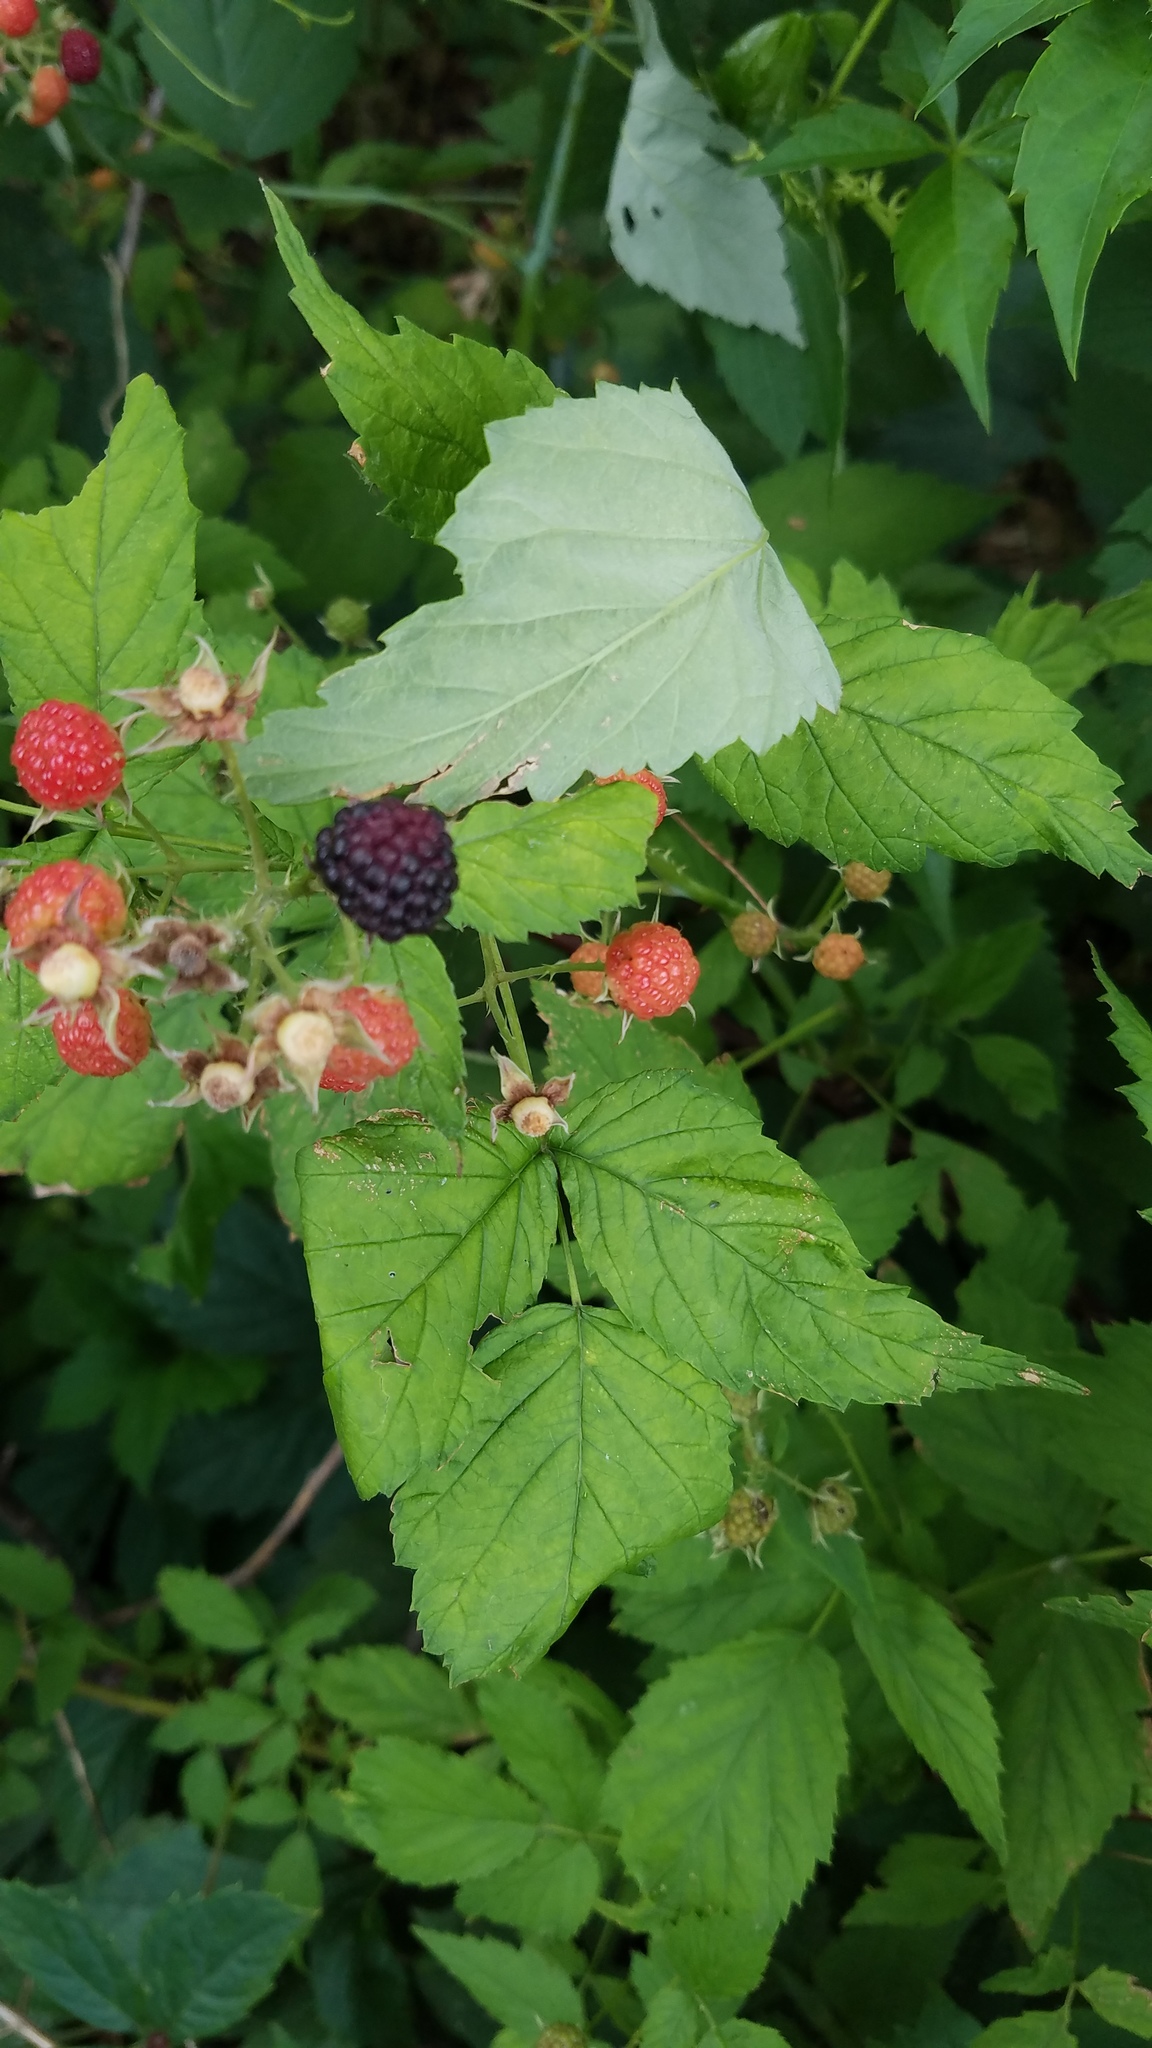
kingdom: Plantae
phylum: Tracheophyta
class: Magnoliopsida
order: Rosales
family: Rosaceae
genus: Rubus
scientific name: Rubus occidentalis
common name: Black raspberry
